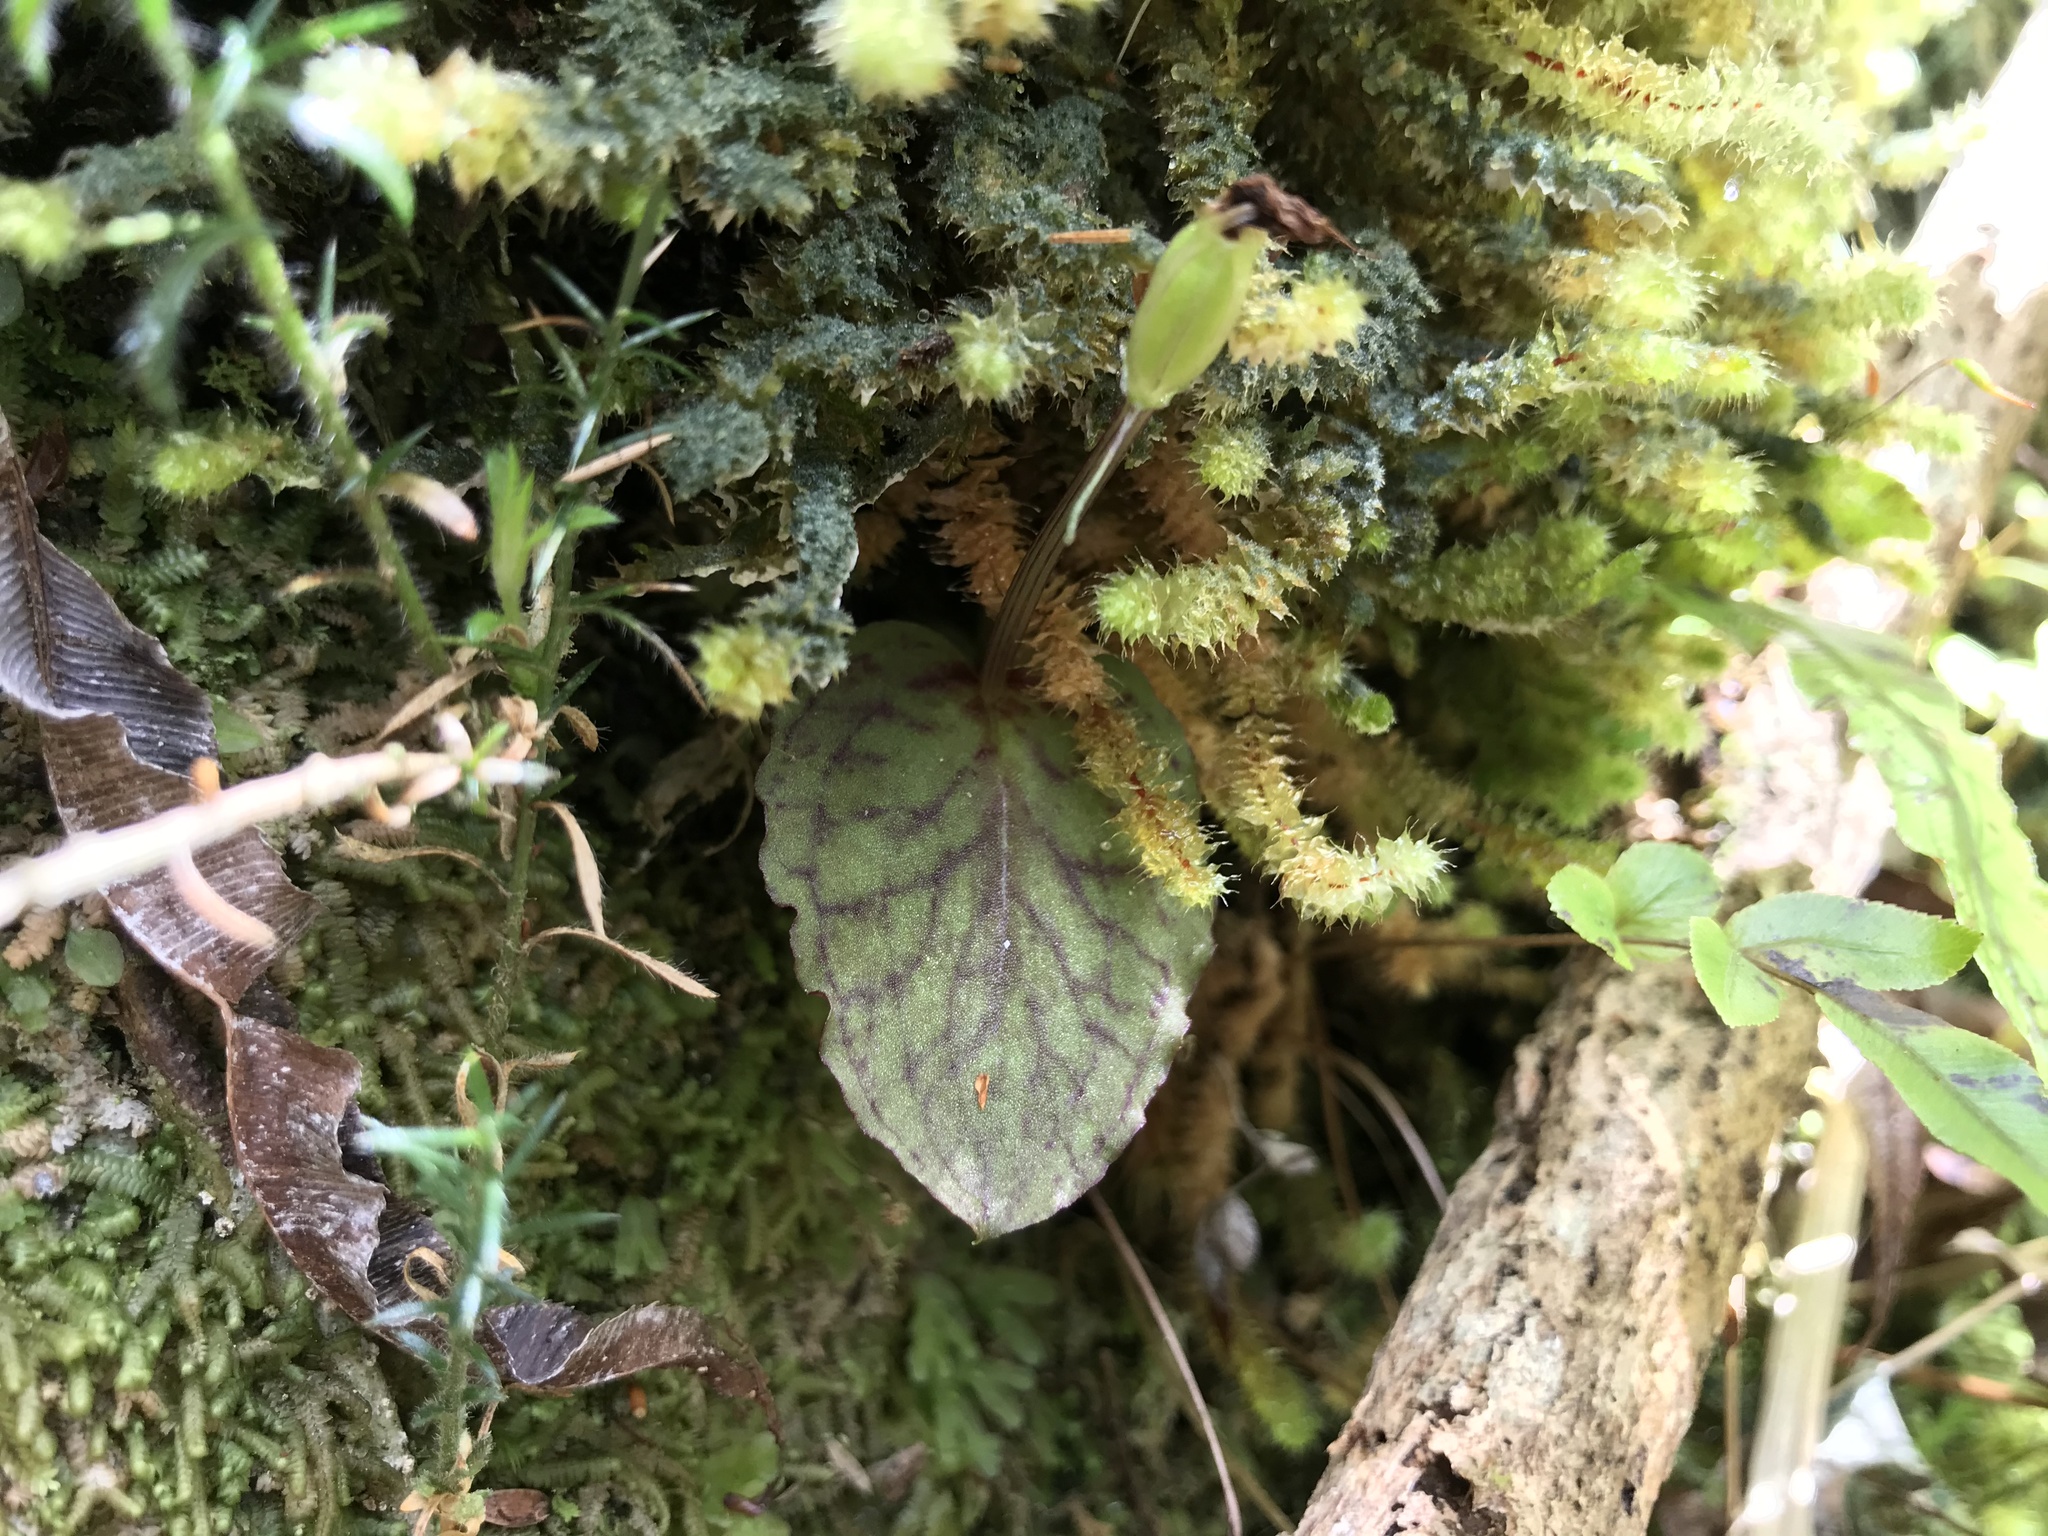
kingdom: Plantae
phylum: Tracheophyta
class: Liliopsida
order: Asparagales
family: Orchidaceae
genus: Corybas
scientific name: Corybas oblongus
